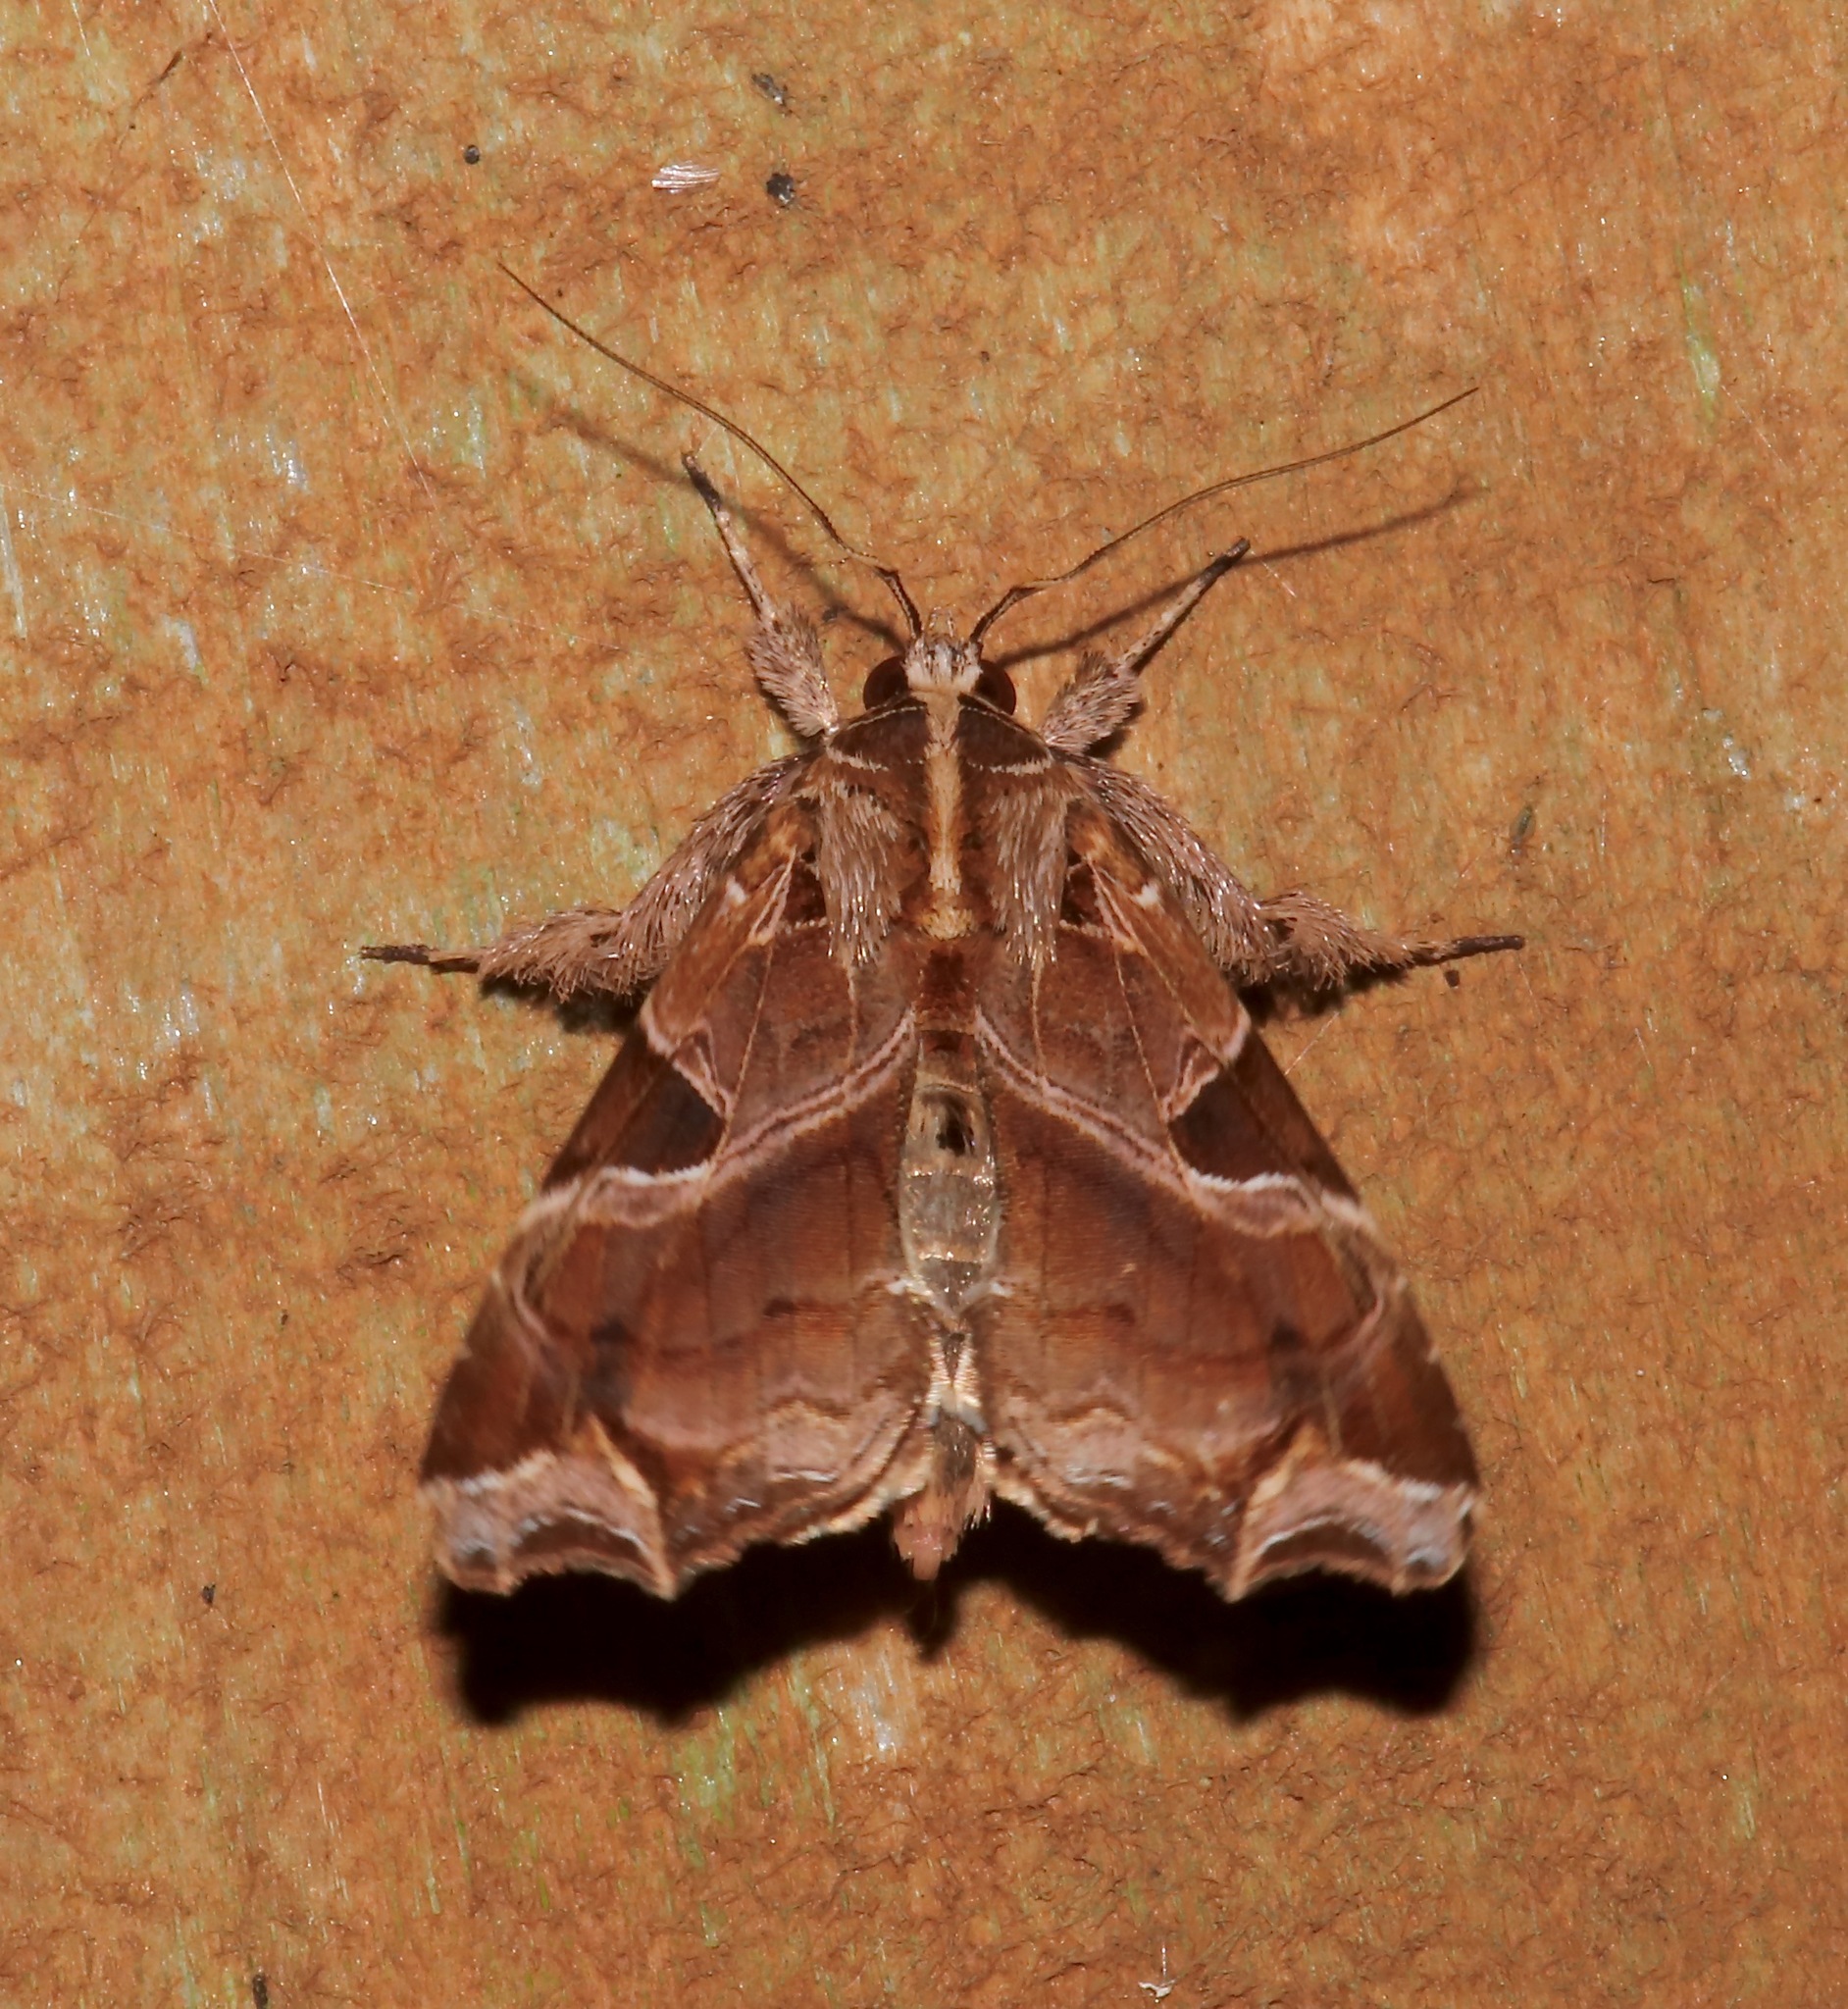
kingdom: Animalia
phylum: Arthropoda
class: Insecta
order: Lepidoptera
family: Noctuidae
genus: Callopistria
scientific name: Callopistria floridensis
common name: Florida fern moth
